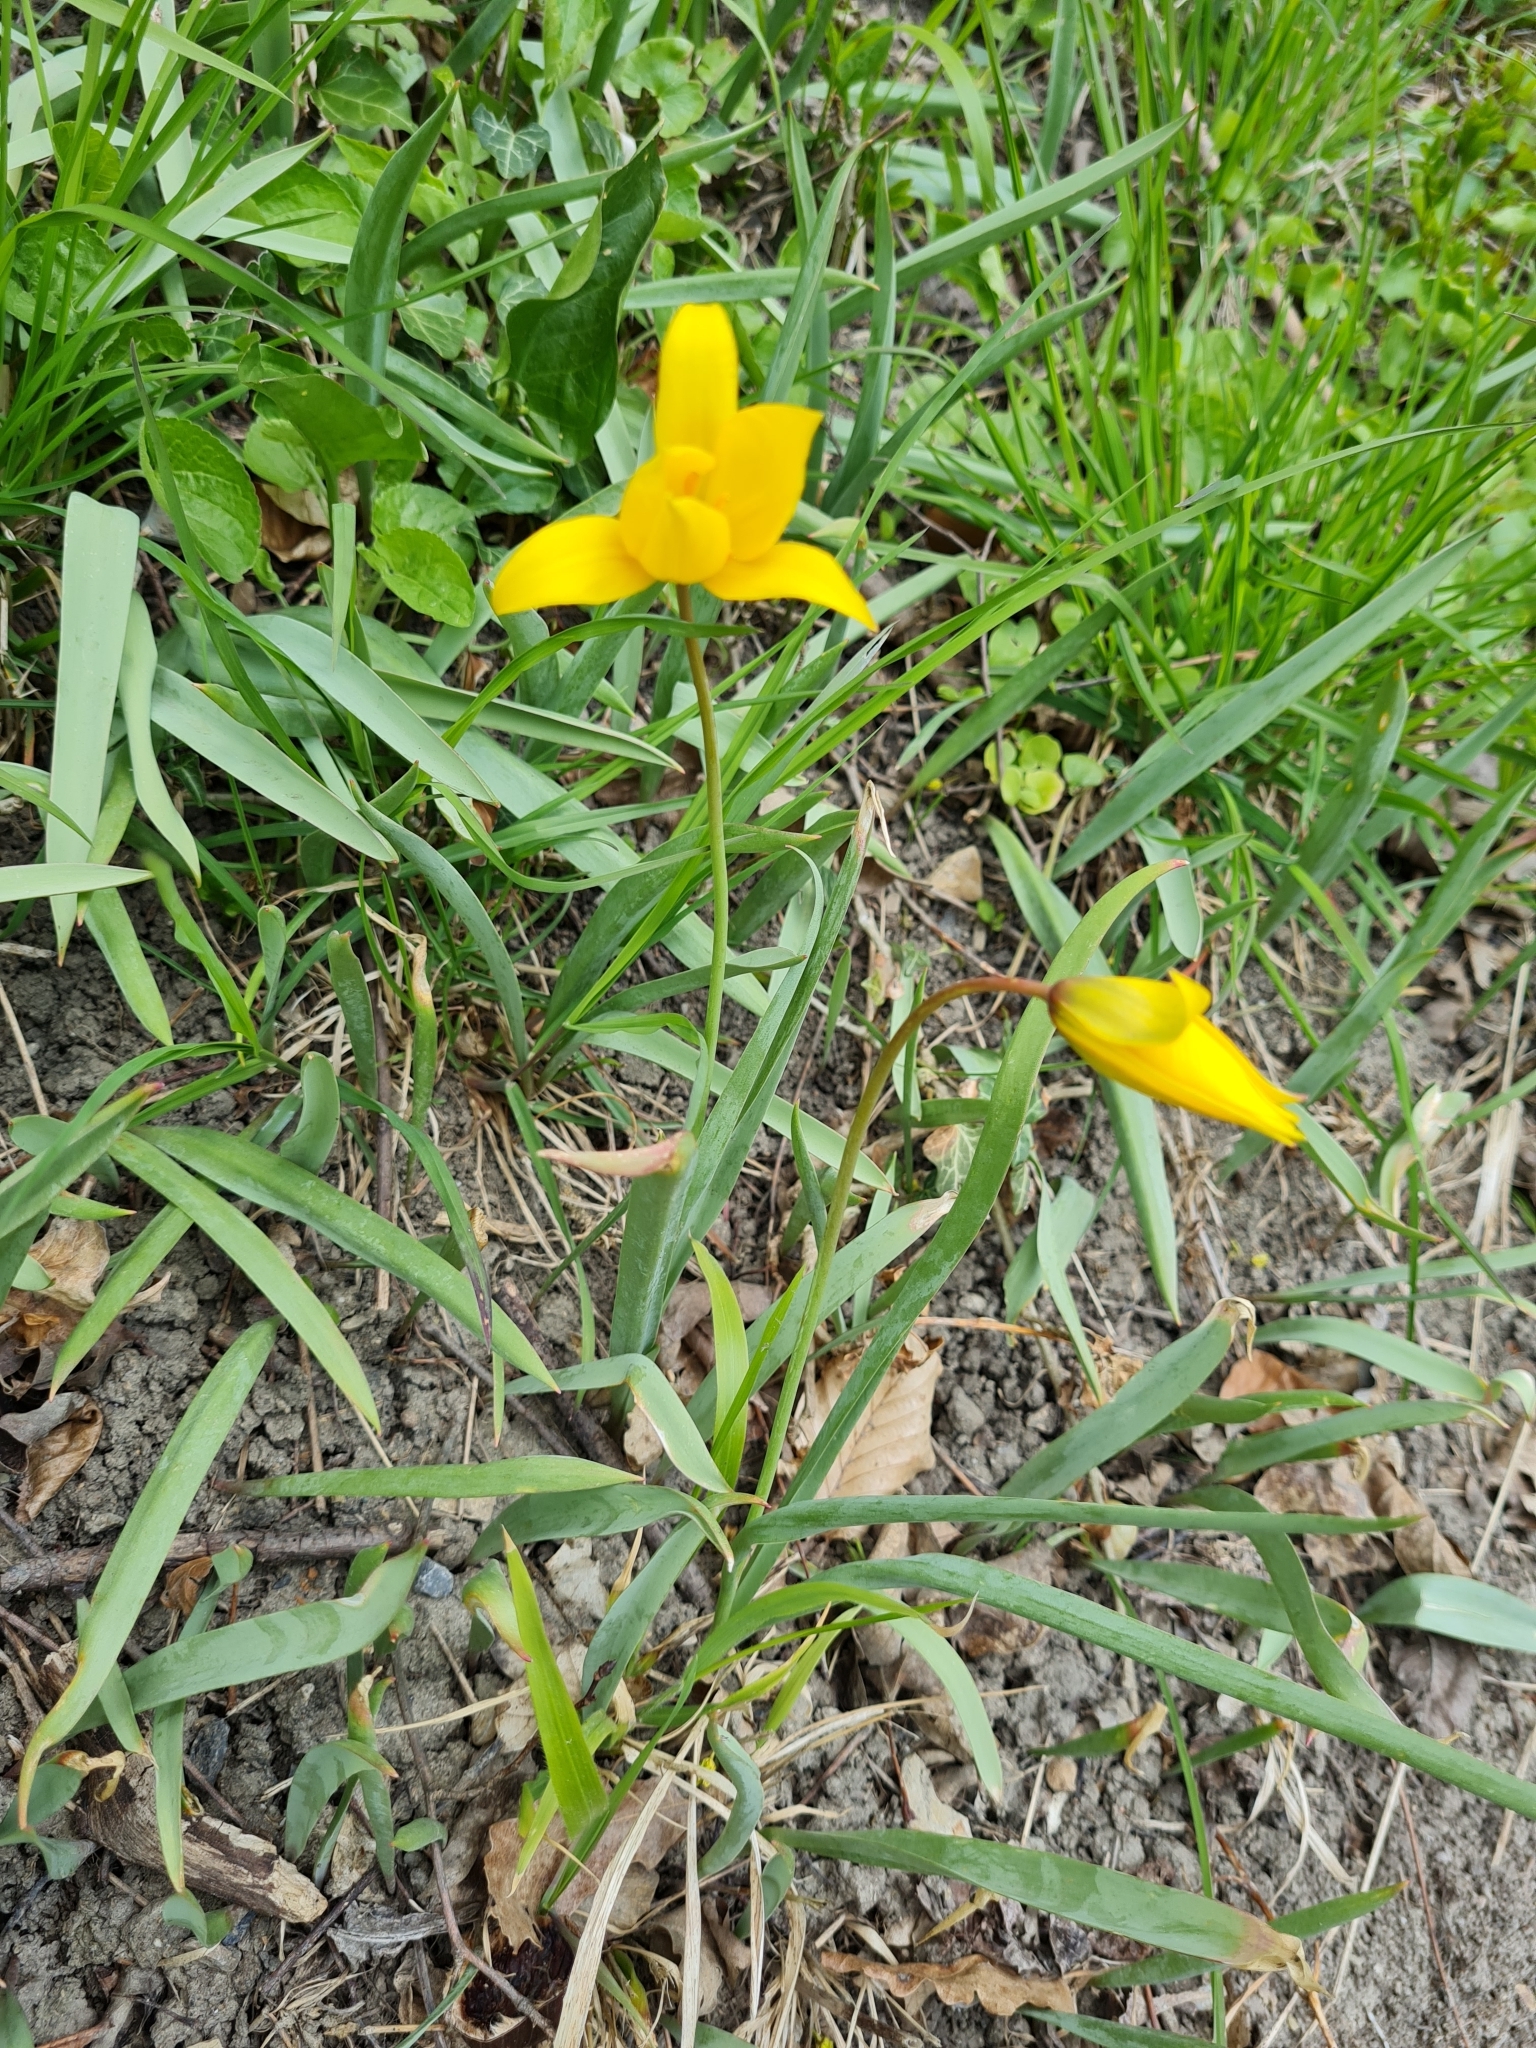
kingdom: Plantae
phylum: Tracheophyta
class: Liliopsida
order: Liliales
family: Liliaceae
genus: Tulipa
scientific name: Tulipa sylvestris
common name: Wild tulip
